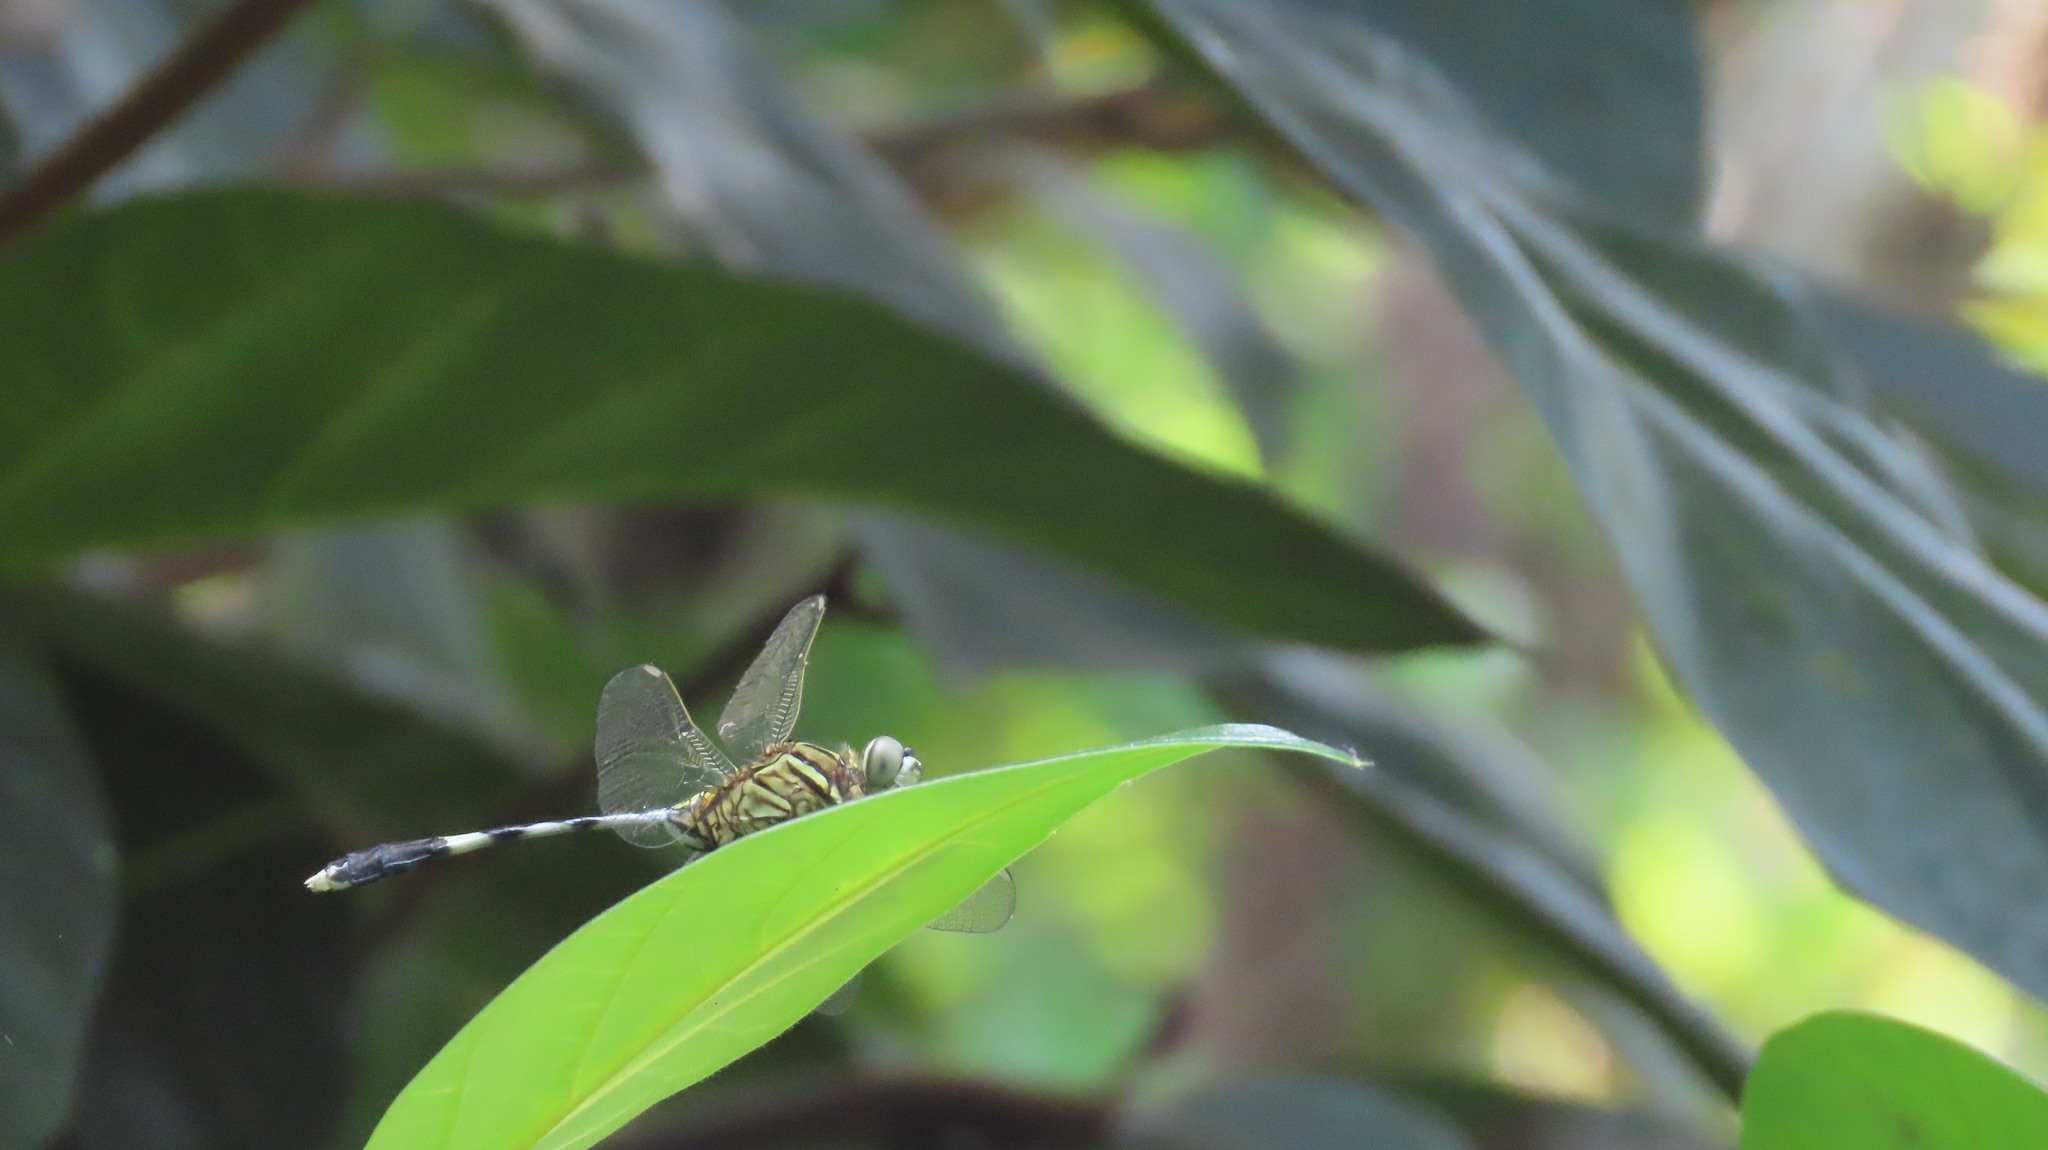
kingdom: Animalia
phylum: Arthropoda
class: Insecta
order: Odonata
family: Libellulidae
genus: Orthetrum
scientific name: Orthetrum sabina
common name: Slender skimmer
